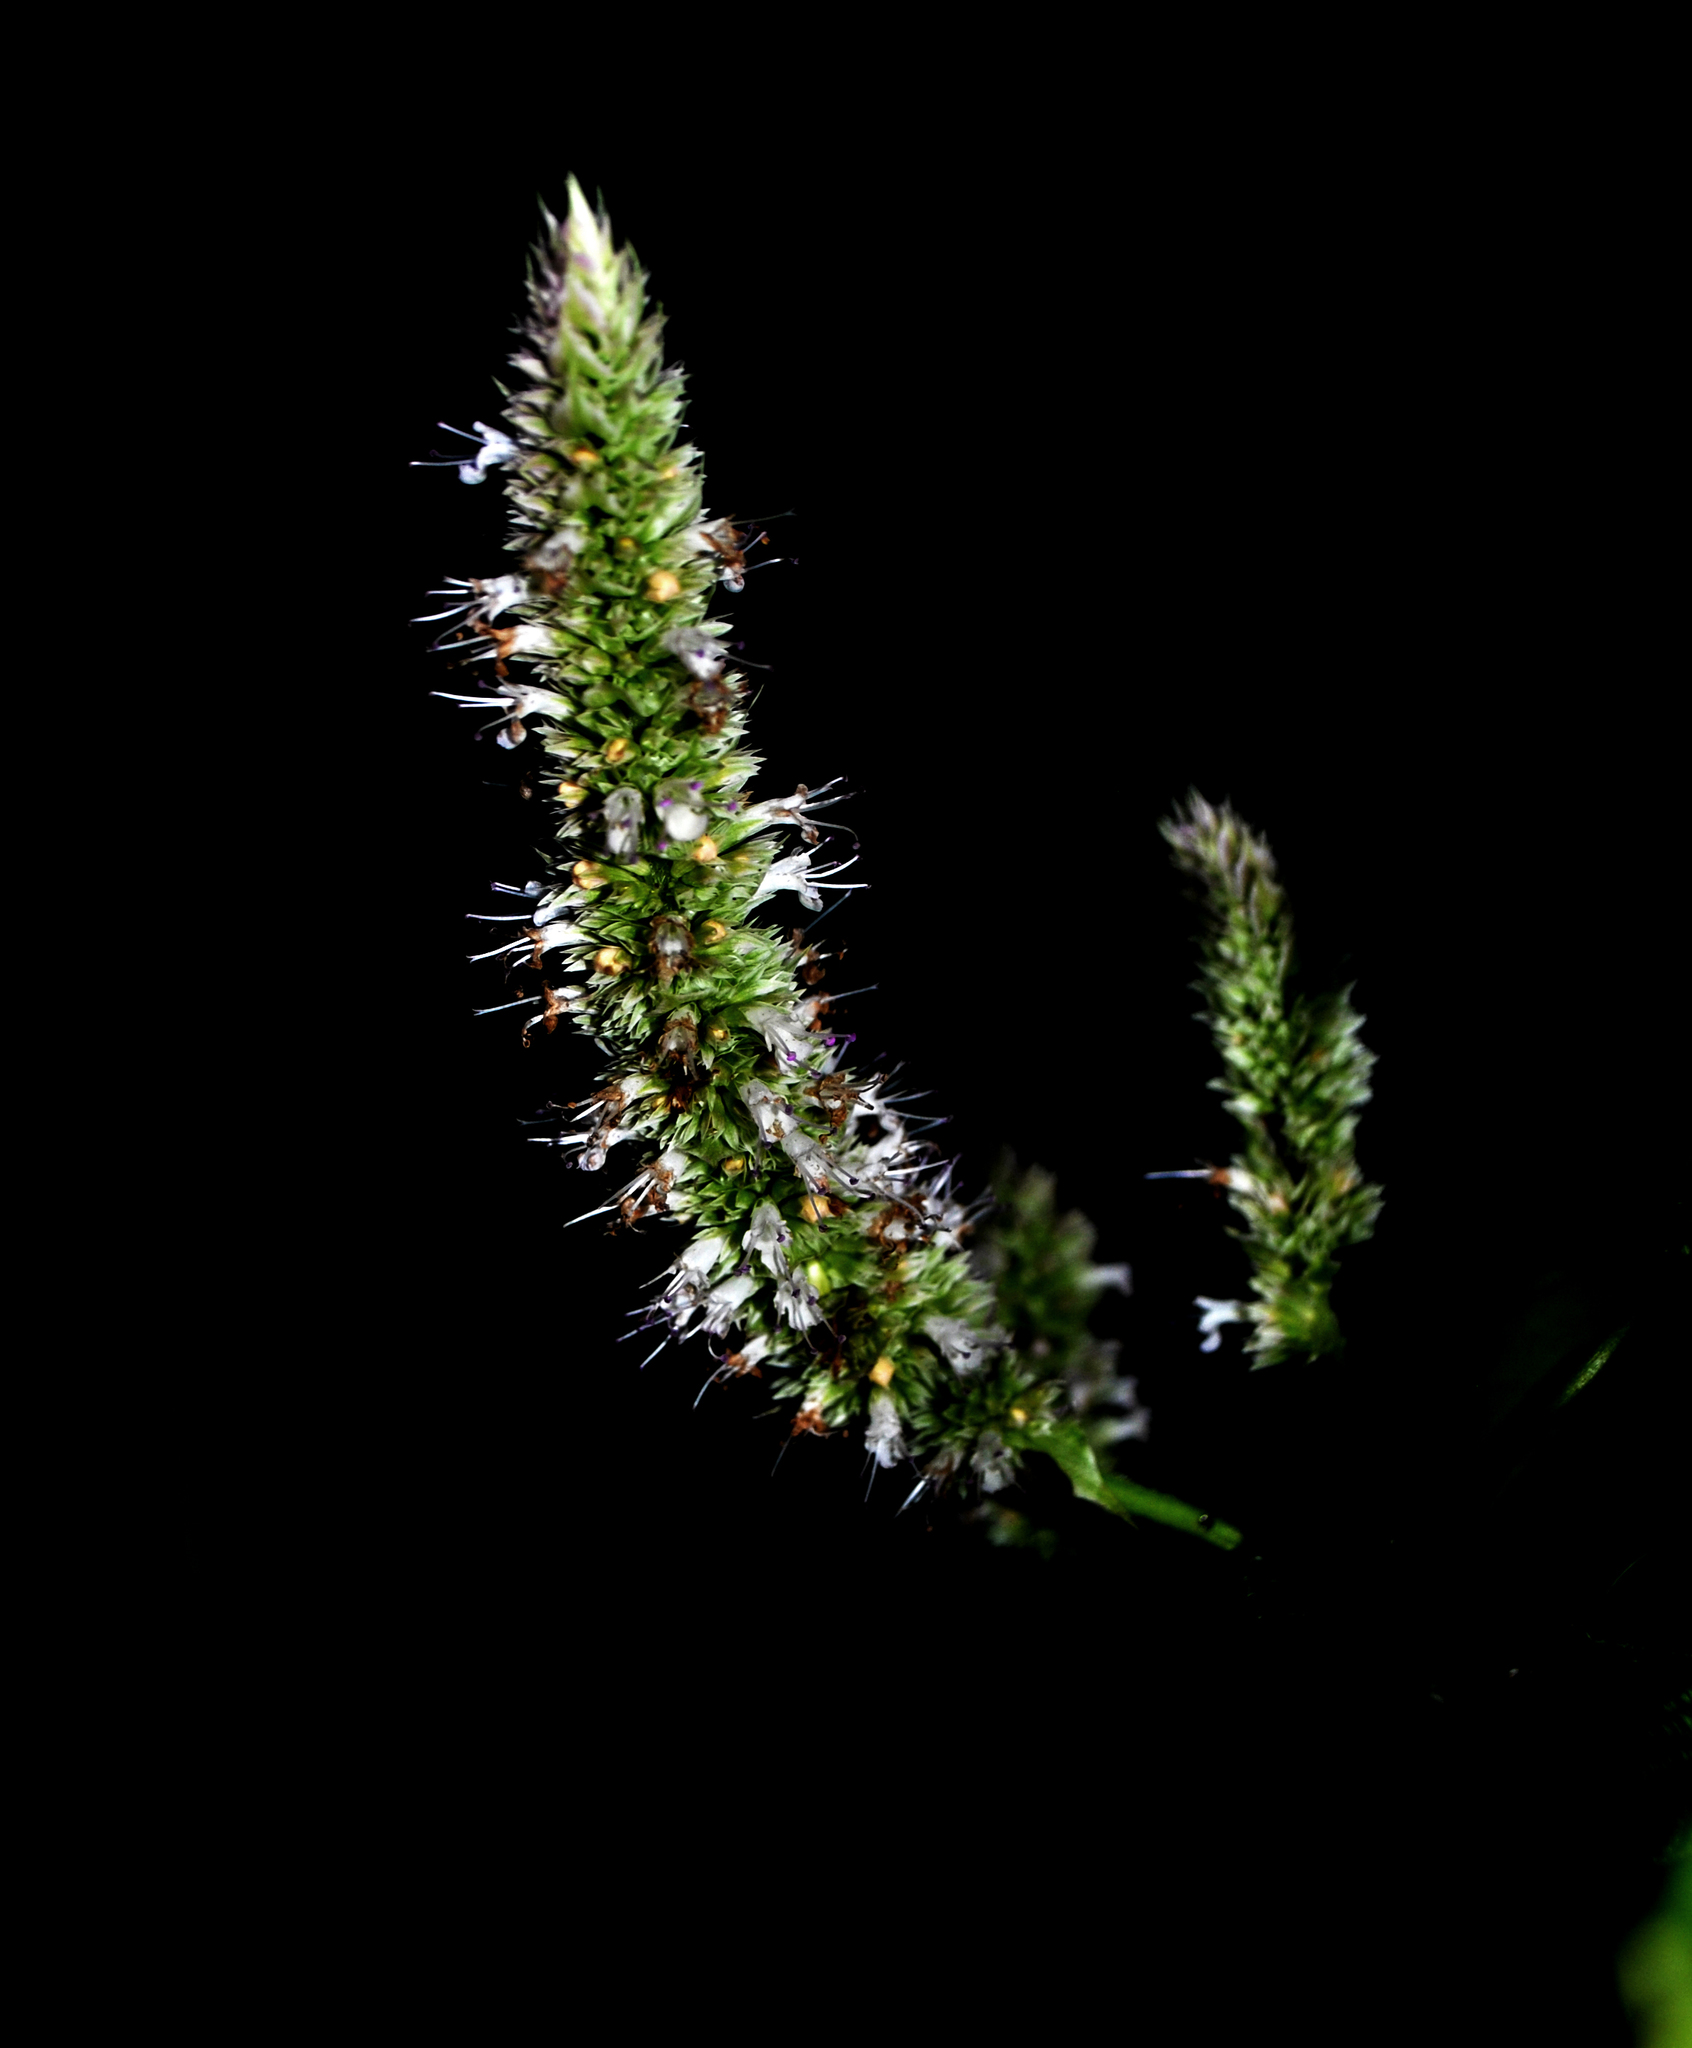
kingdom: Plantae
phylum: Tracheophyta
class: Magnoliopsida
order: Lamiales
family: Lamiaceae
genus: Agastache
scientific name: Agastache scrophulariifolia
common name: Figwort giant hyssop
